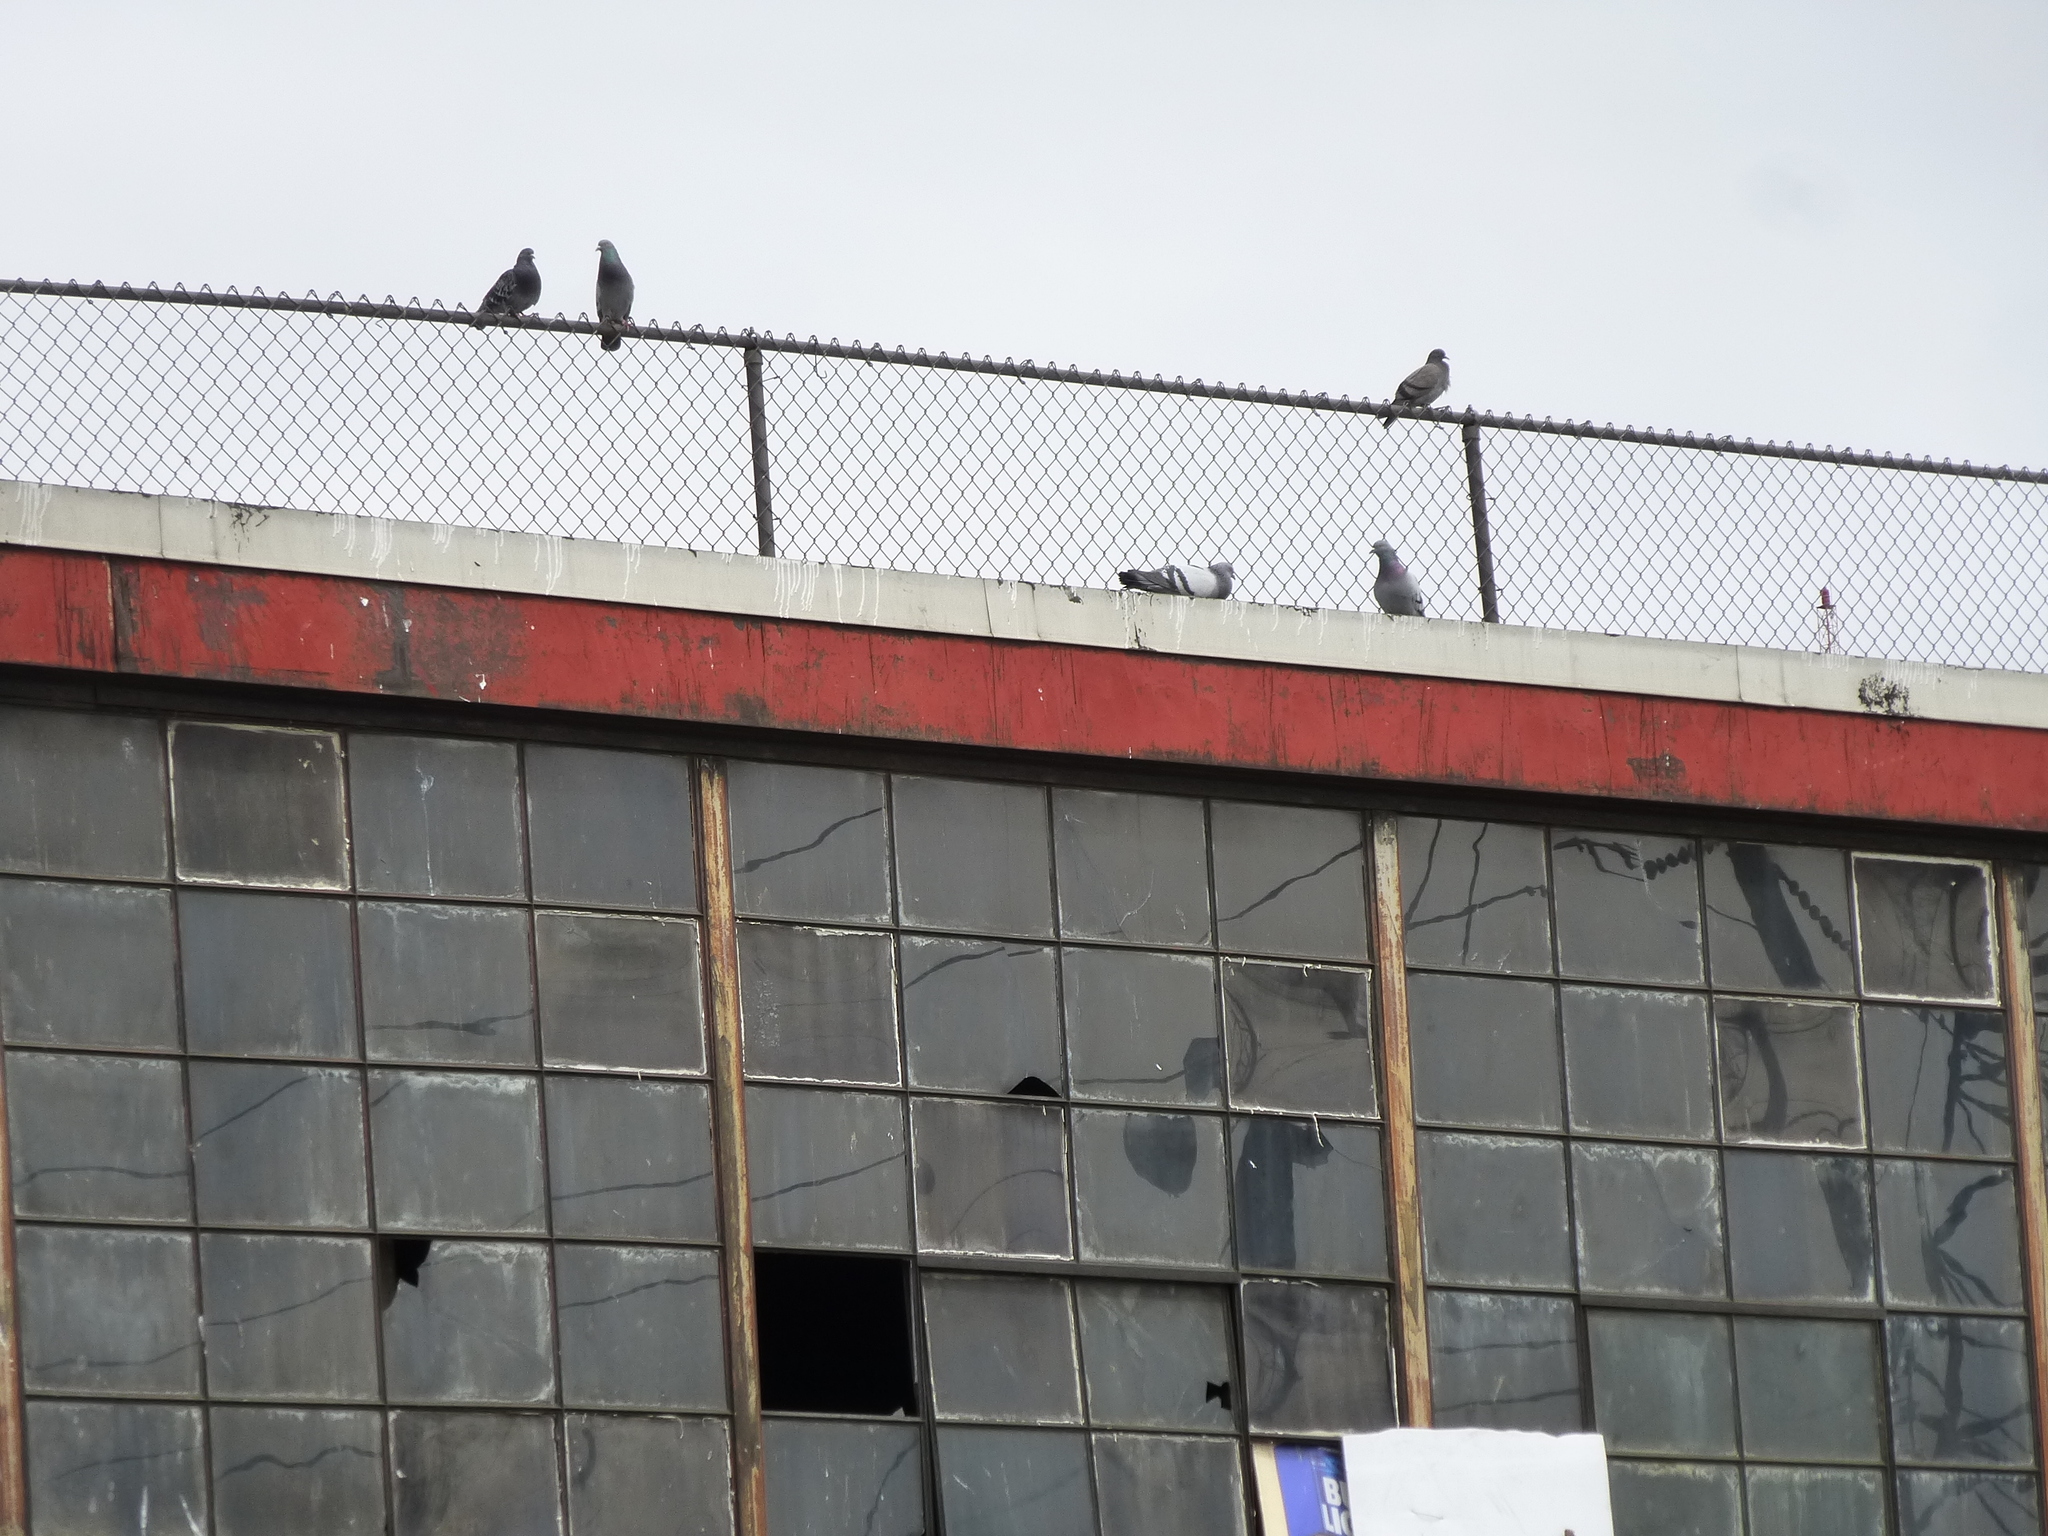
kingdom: Animalia
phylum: Chordata
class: Aves
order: Columbiformes
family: Columbidae
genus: Columba
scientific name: Columba livia
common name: Rock pigeon
